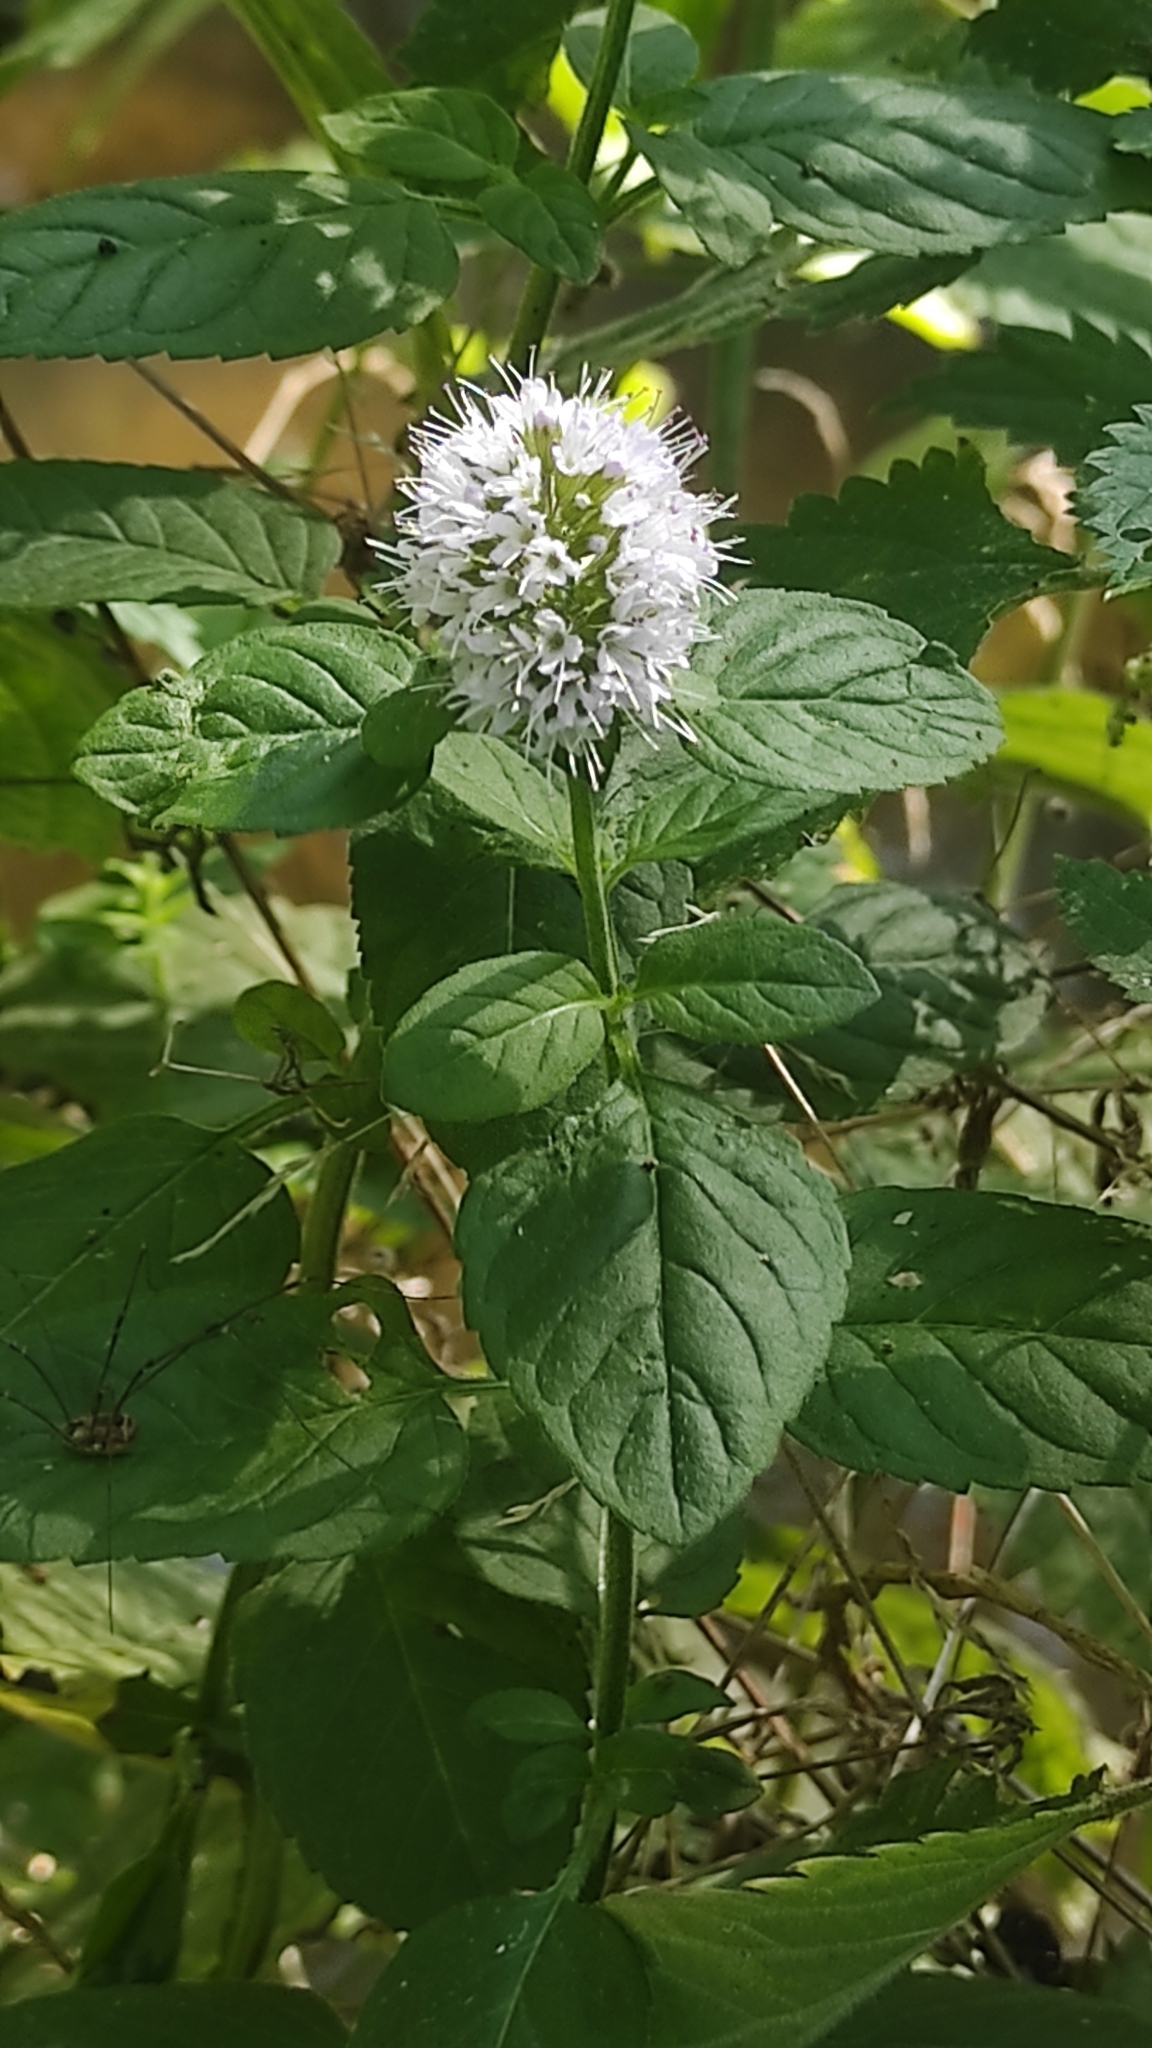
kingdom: Plantae
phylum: Tracheophyta
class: Magnoliopsida
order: Lamiales
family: Lamiaceae
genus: Mentha
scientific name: Mentha aquatica
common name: Water mint
